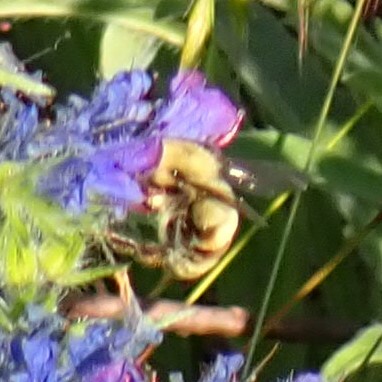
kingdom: Animalia
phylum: Arthropoda
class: Insecta
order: Hymenoptera
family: Apidae
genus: Bombus
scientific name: Bombus bimaculatus
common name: Two-spotted bumble bee
